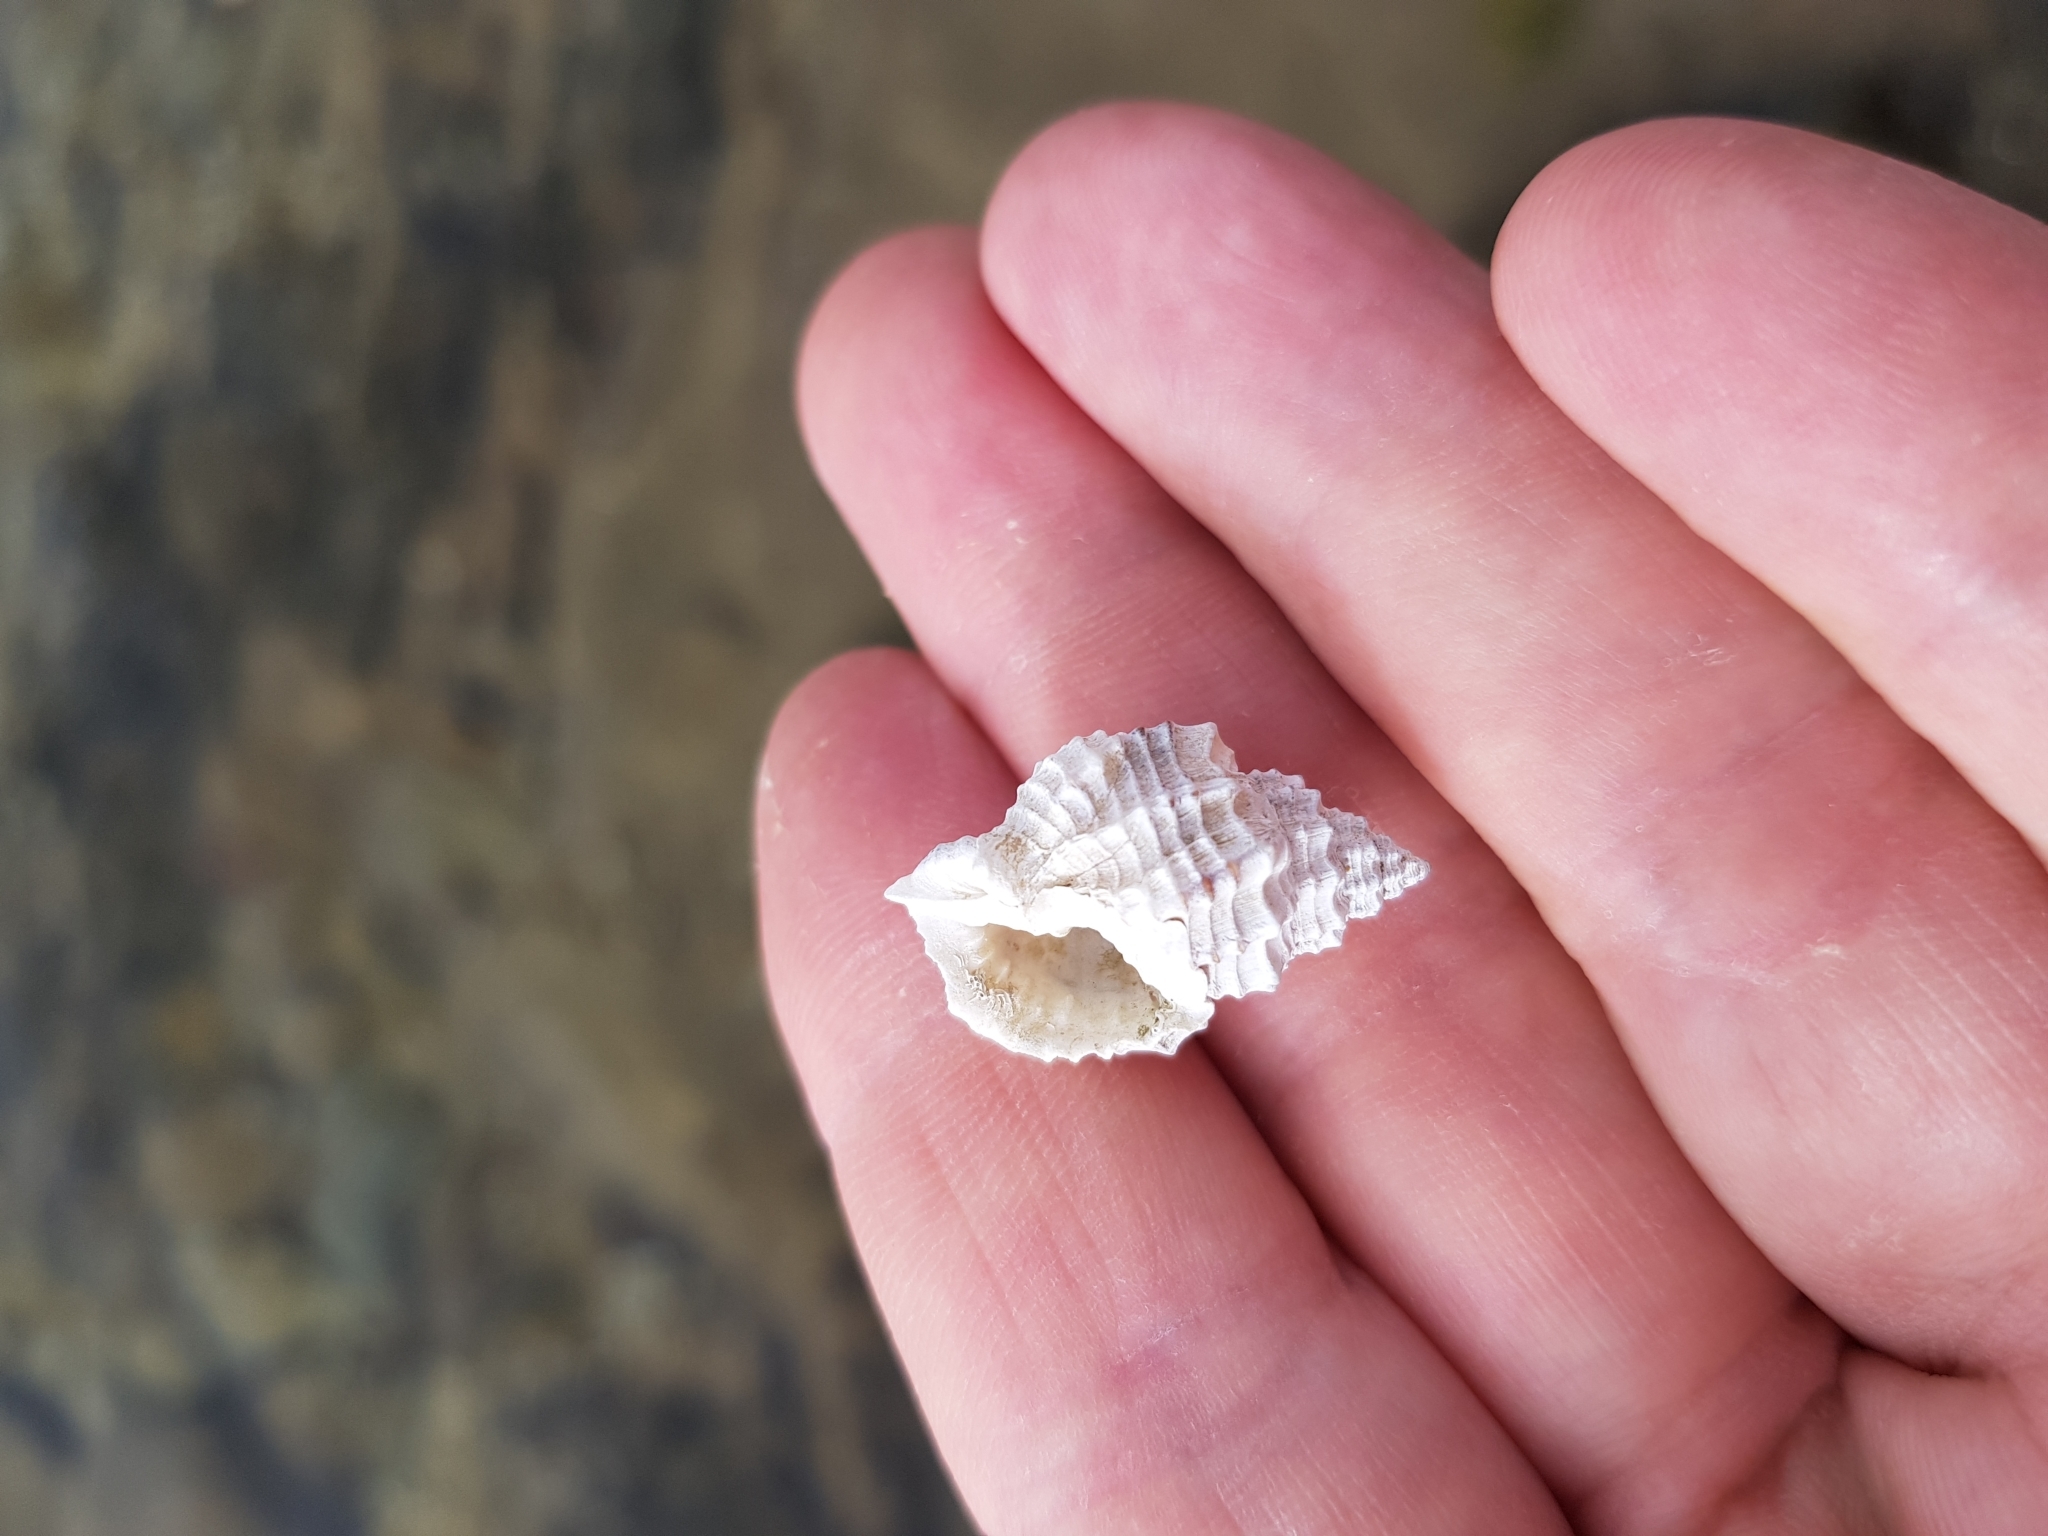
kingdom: Animalia
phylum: Mollusca
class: Gastropoda
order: Neogastropoda
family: Cancellariidae
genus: Bivetiella
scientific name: Bivetiella cancellata
